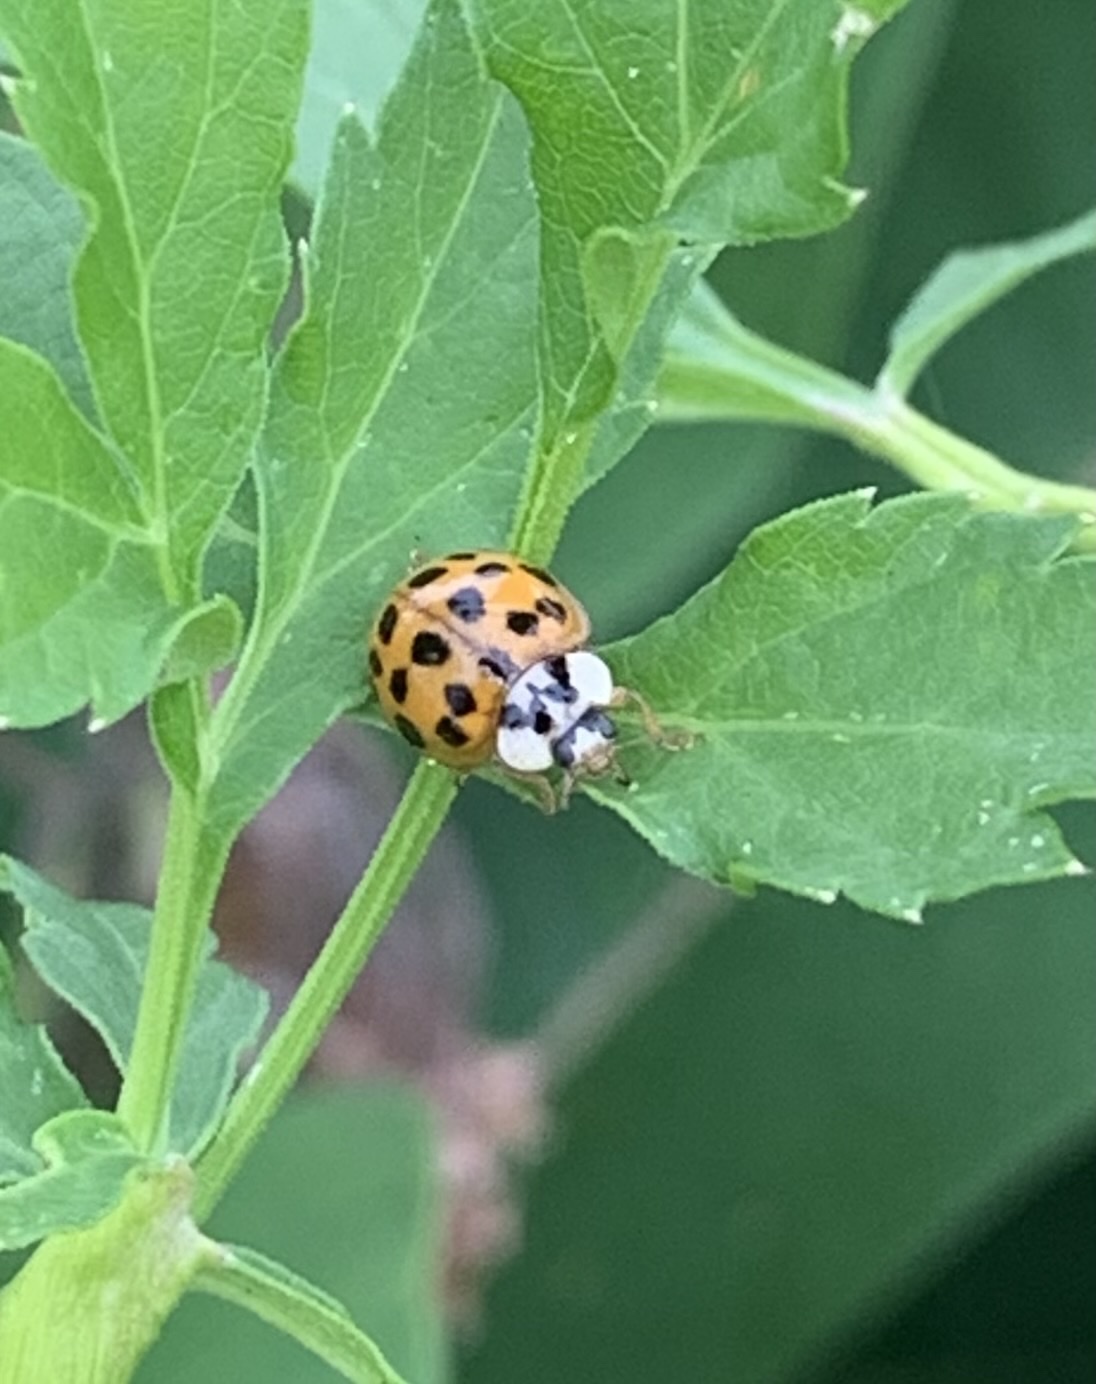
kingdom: Animalia
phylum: Arthropoda
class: Insecta
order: Coleoptera
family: Coccinellidae
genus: Harmonia
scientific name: Harmonia axyridis
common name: Harlequin ladybird
